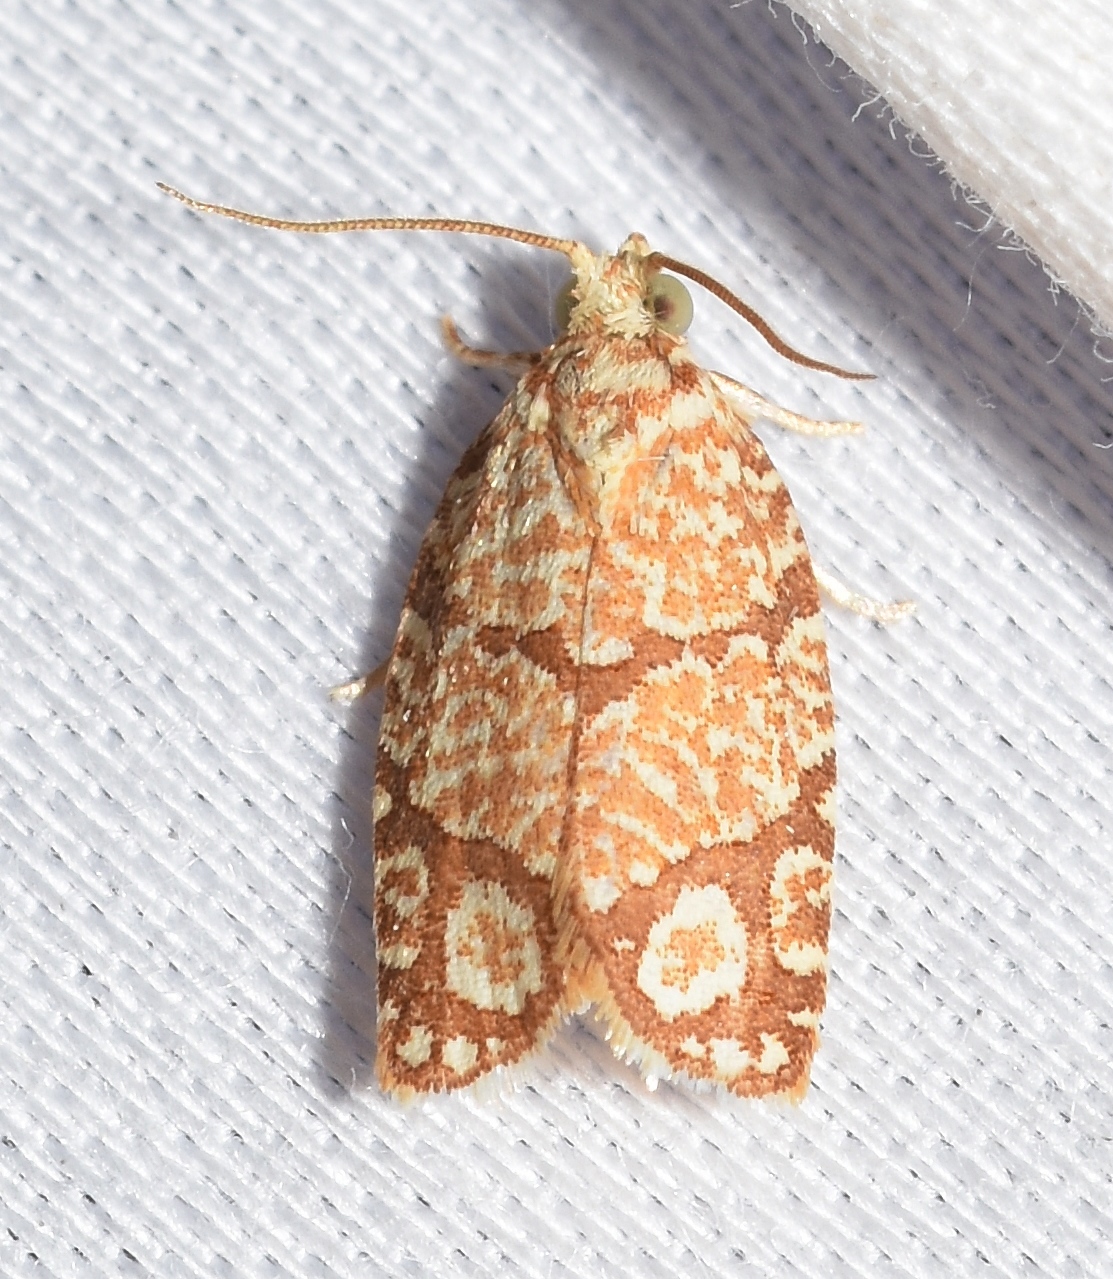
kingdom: Animalia
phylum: Arthropoda
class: Insecta
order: Lepidoptera
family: Tortricidae
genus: Argyrotaenia
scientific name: Argyrotaenia quercifoliana
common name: Yellow-winged oak leafroller moth
